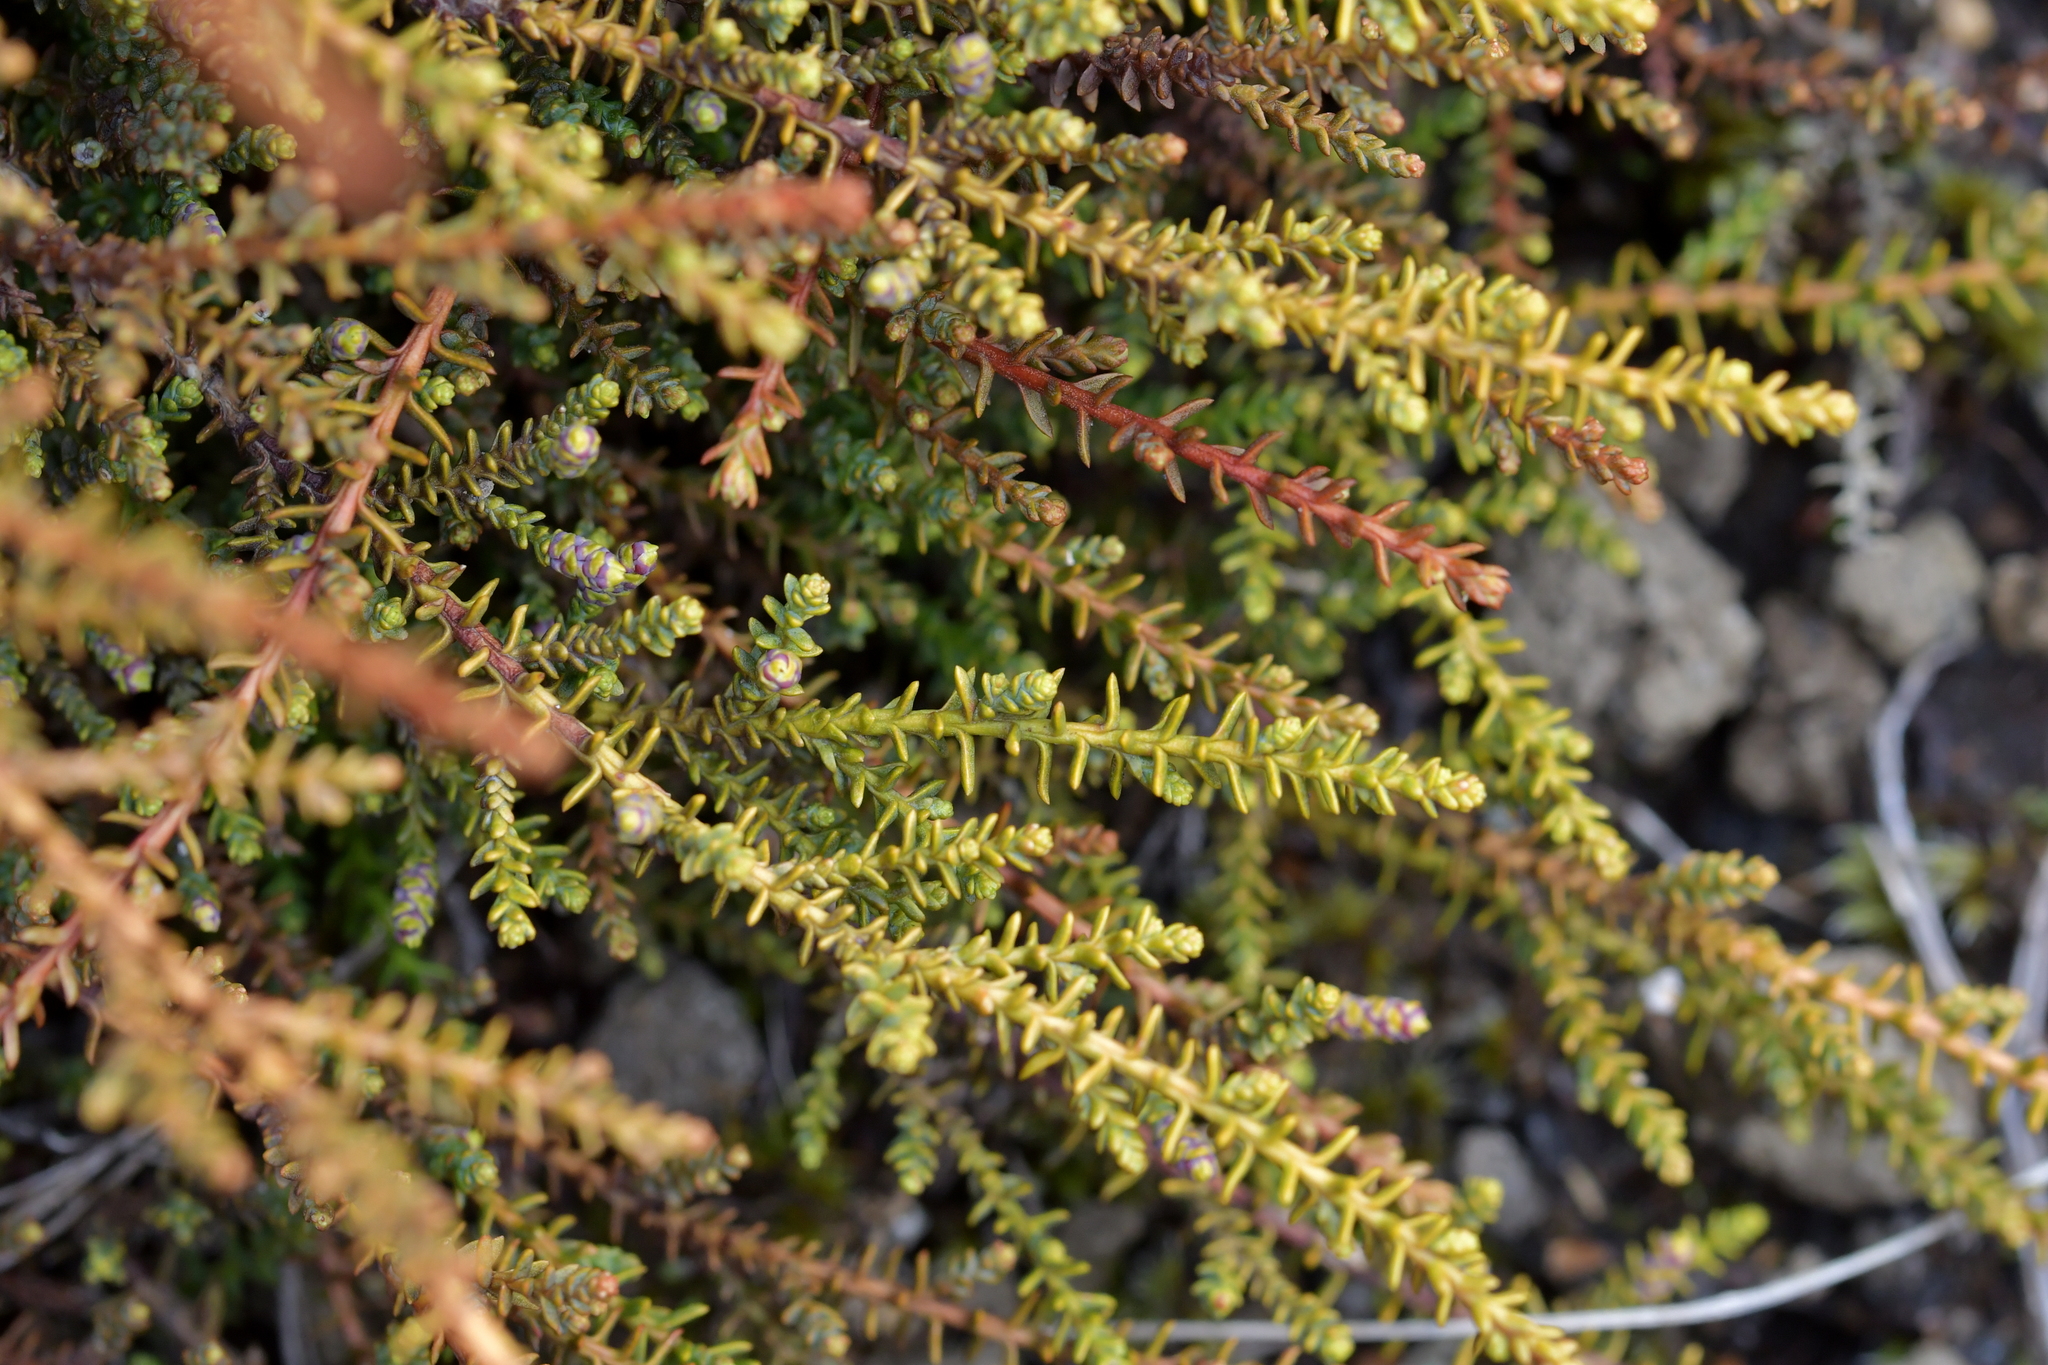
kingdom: Plantae
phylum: Tracheophyta
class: Pinopsida
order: Pinales
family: Podocarpaceae
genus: Lepidothamnus
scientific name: Lepidothamnus laxifolius
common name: Pygmy pine
